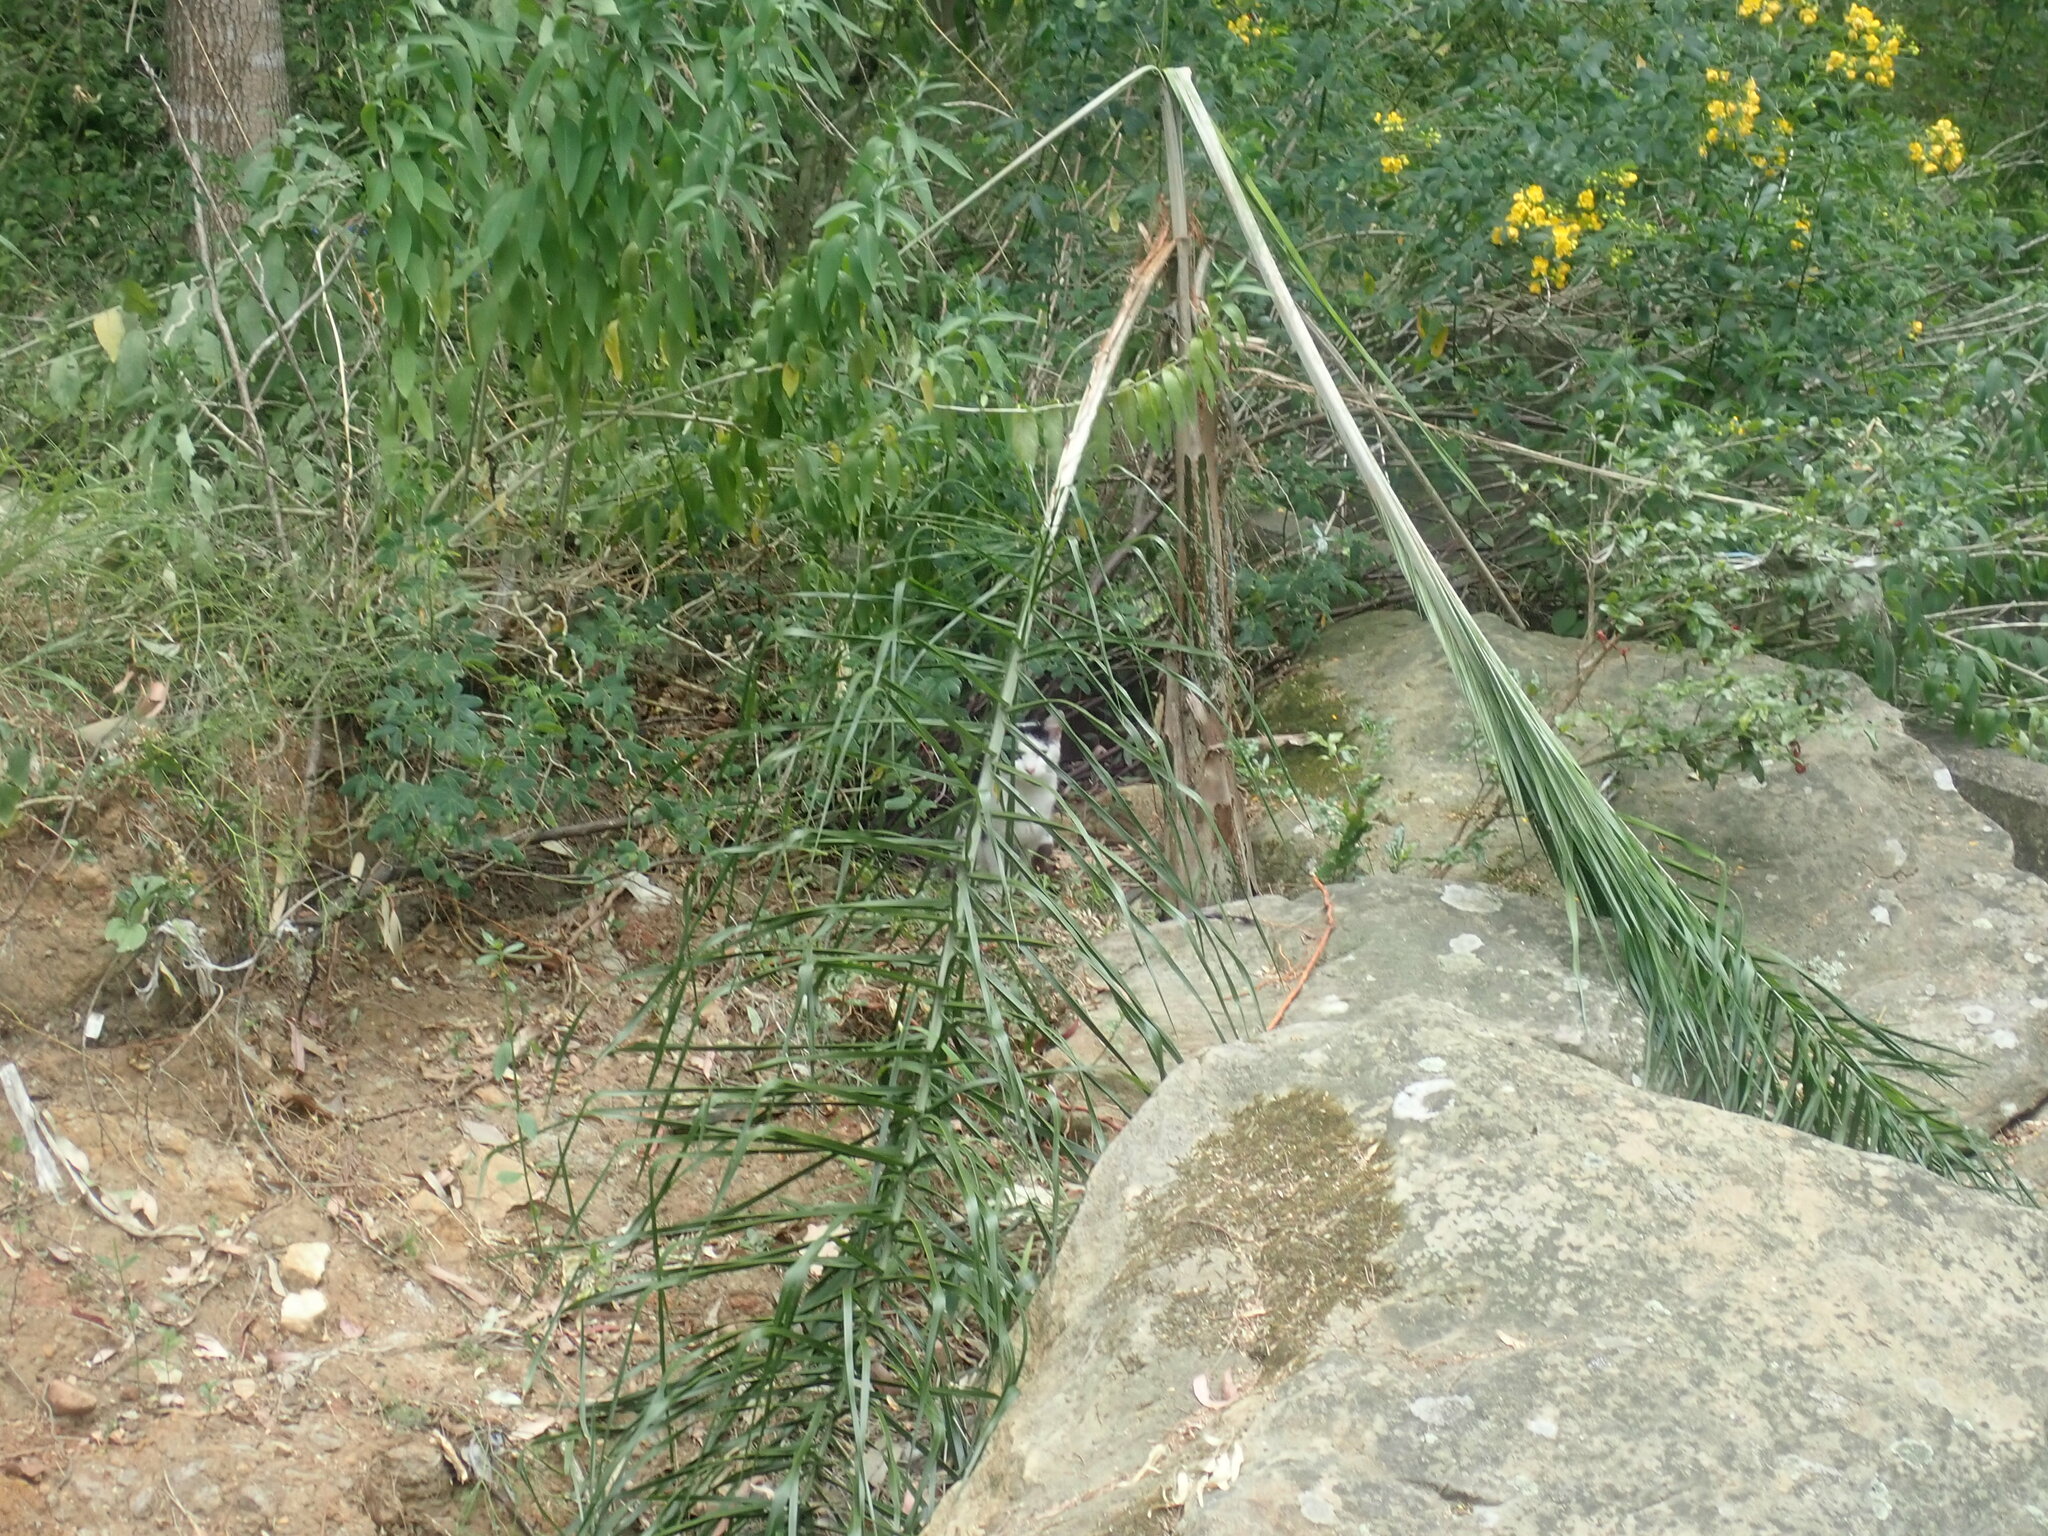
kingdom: Animalia
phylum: Chordata
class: Mammalia
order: Carnivora
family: Felidae
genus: Felis
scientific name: Felis catus
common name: Domestic cat
